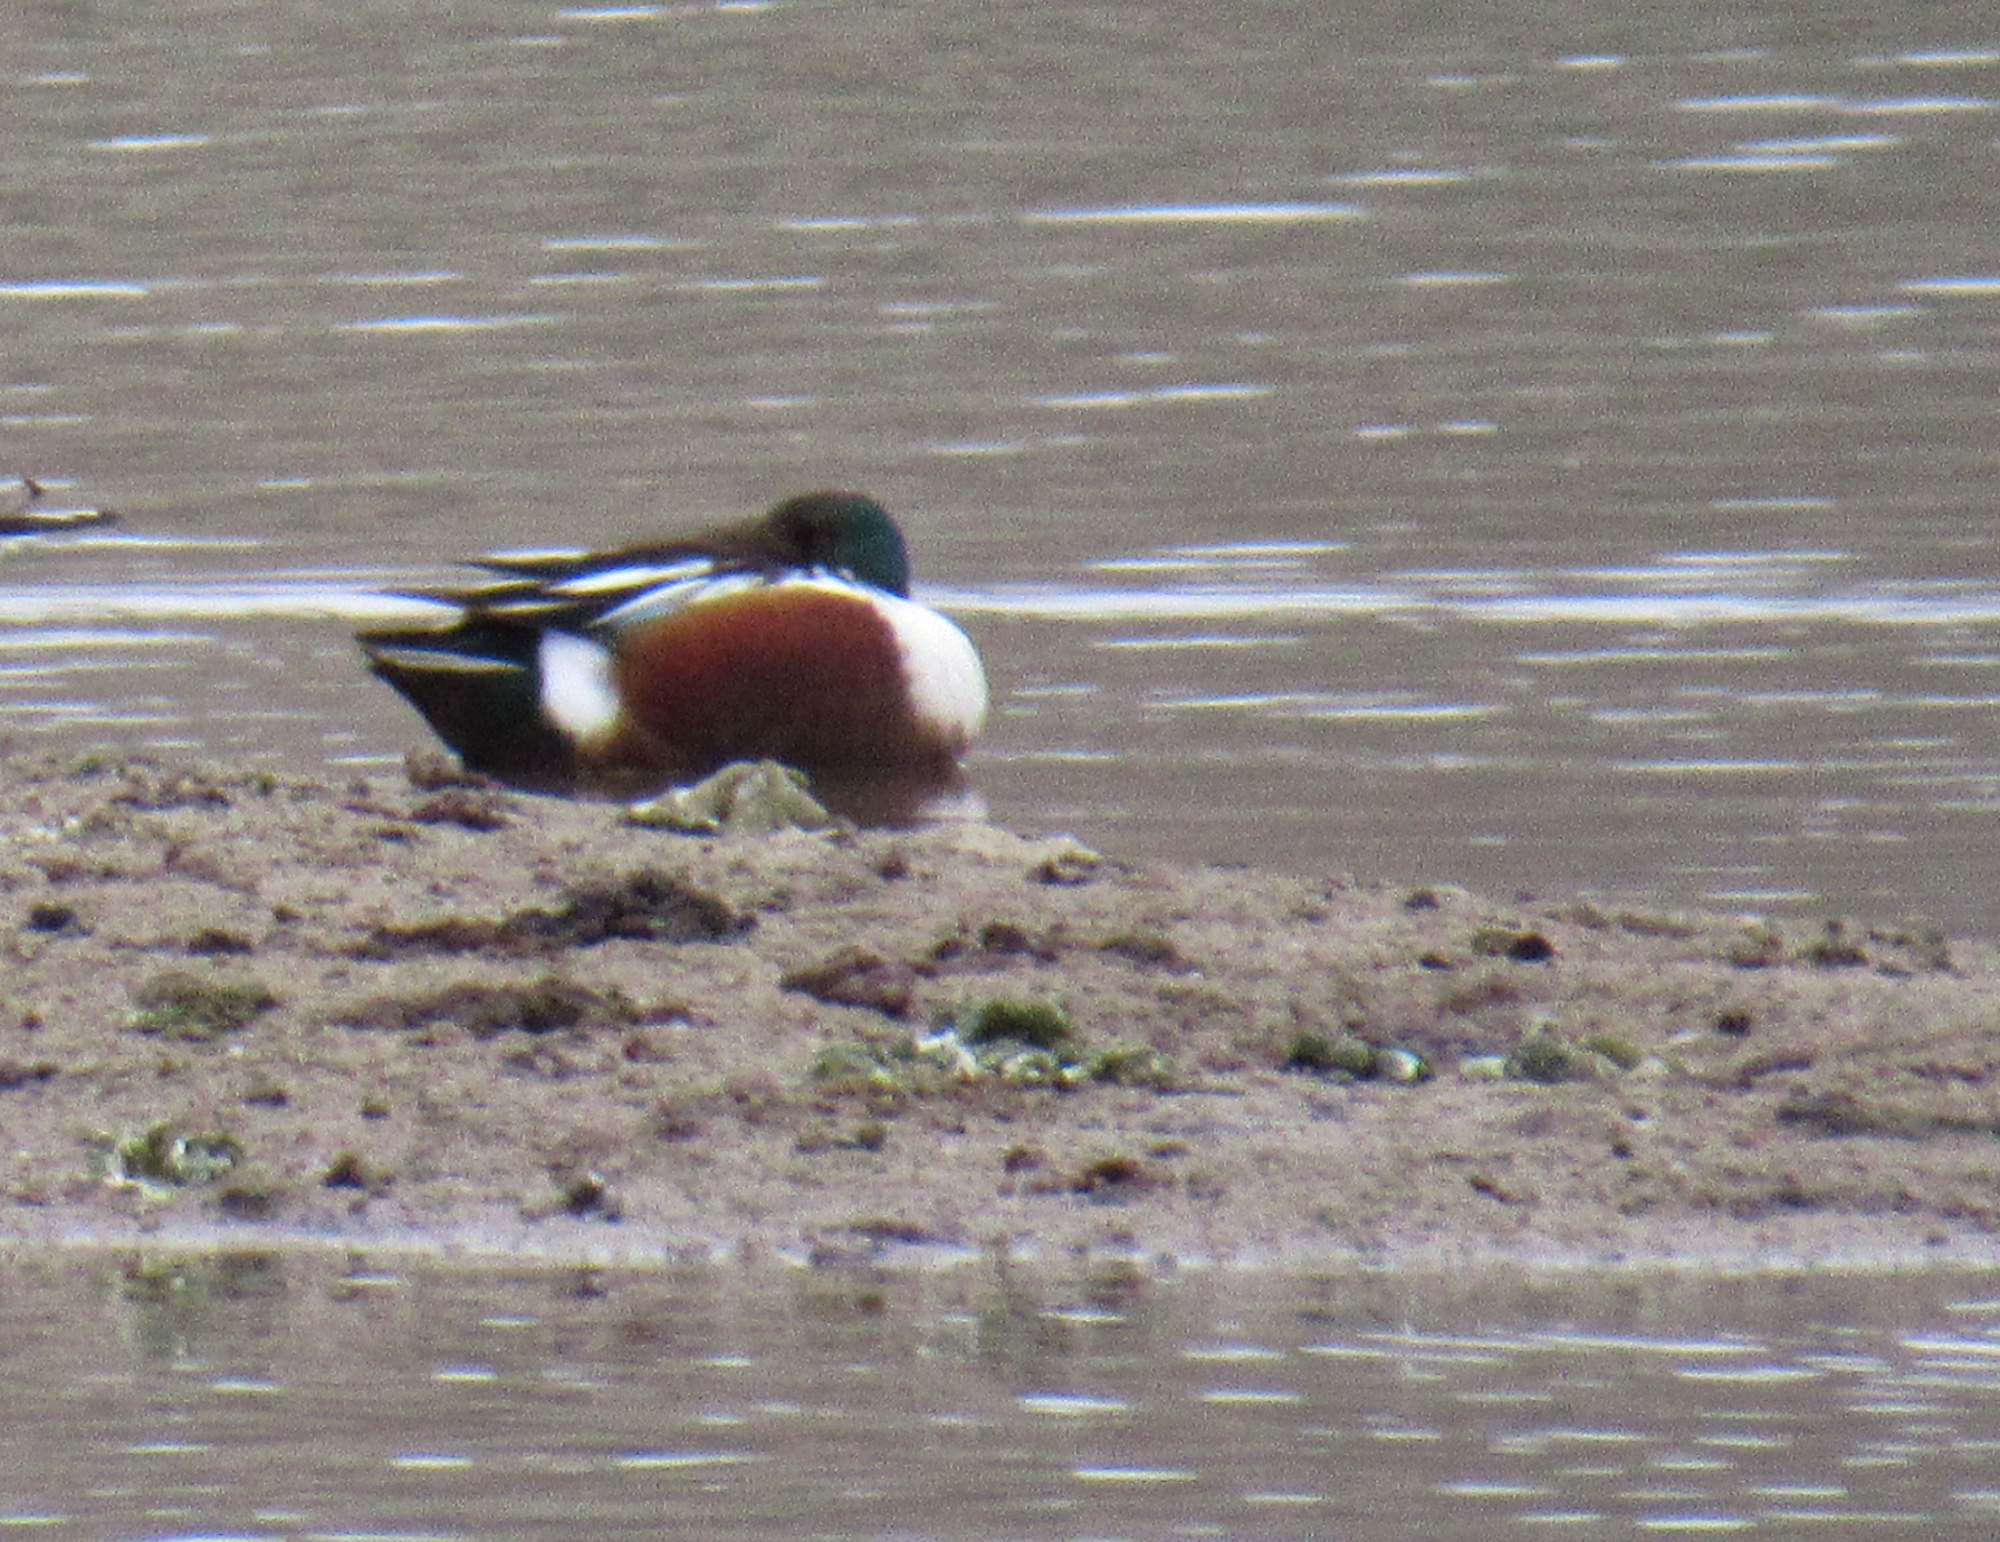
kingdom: Animalia
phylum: Chordata
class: Aves
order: Anseriformes
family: Anatidae
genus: Spatula
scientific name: Spatula clypeata
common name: Northern shoveler
